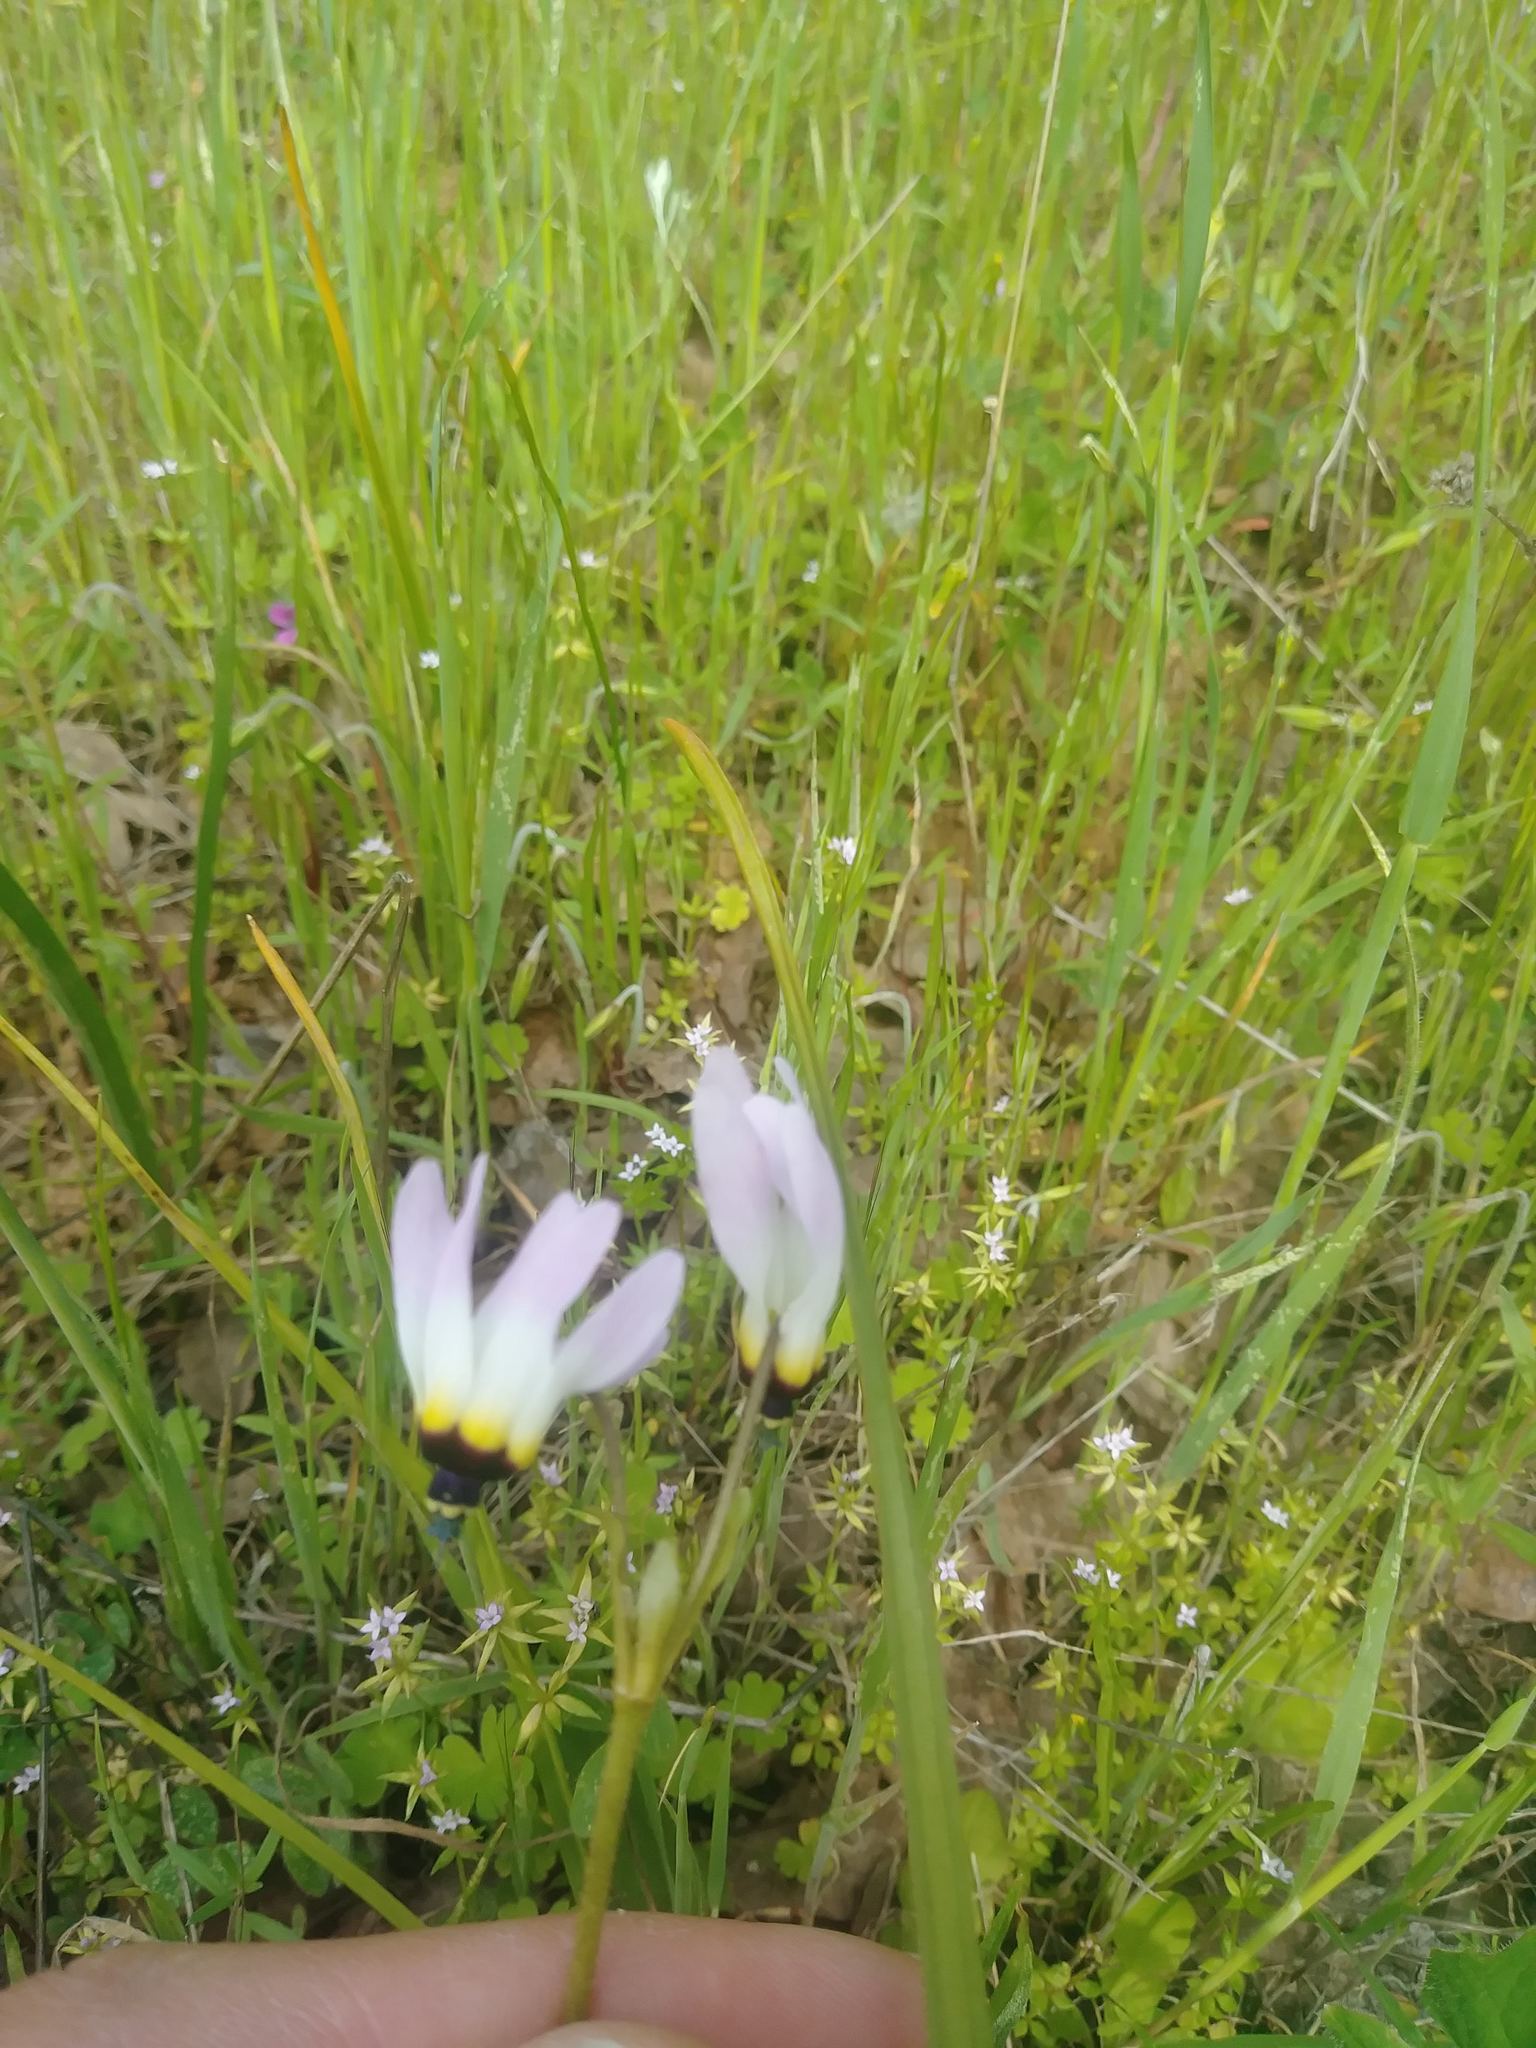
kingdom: Plantae
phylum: Tracheophyta
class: Magnoliopsida
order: Ericales
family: Primulaceae
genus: Dodecatheon
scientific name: Dodecatheon clevelandii
